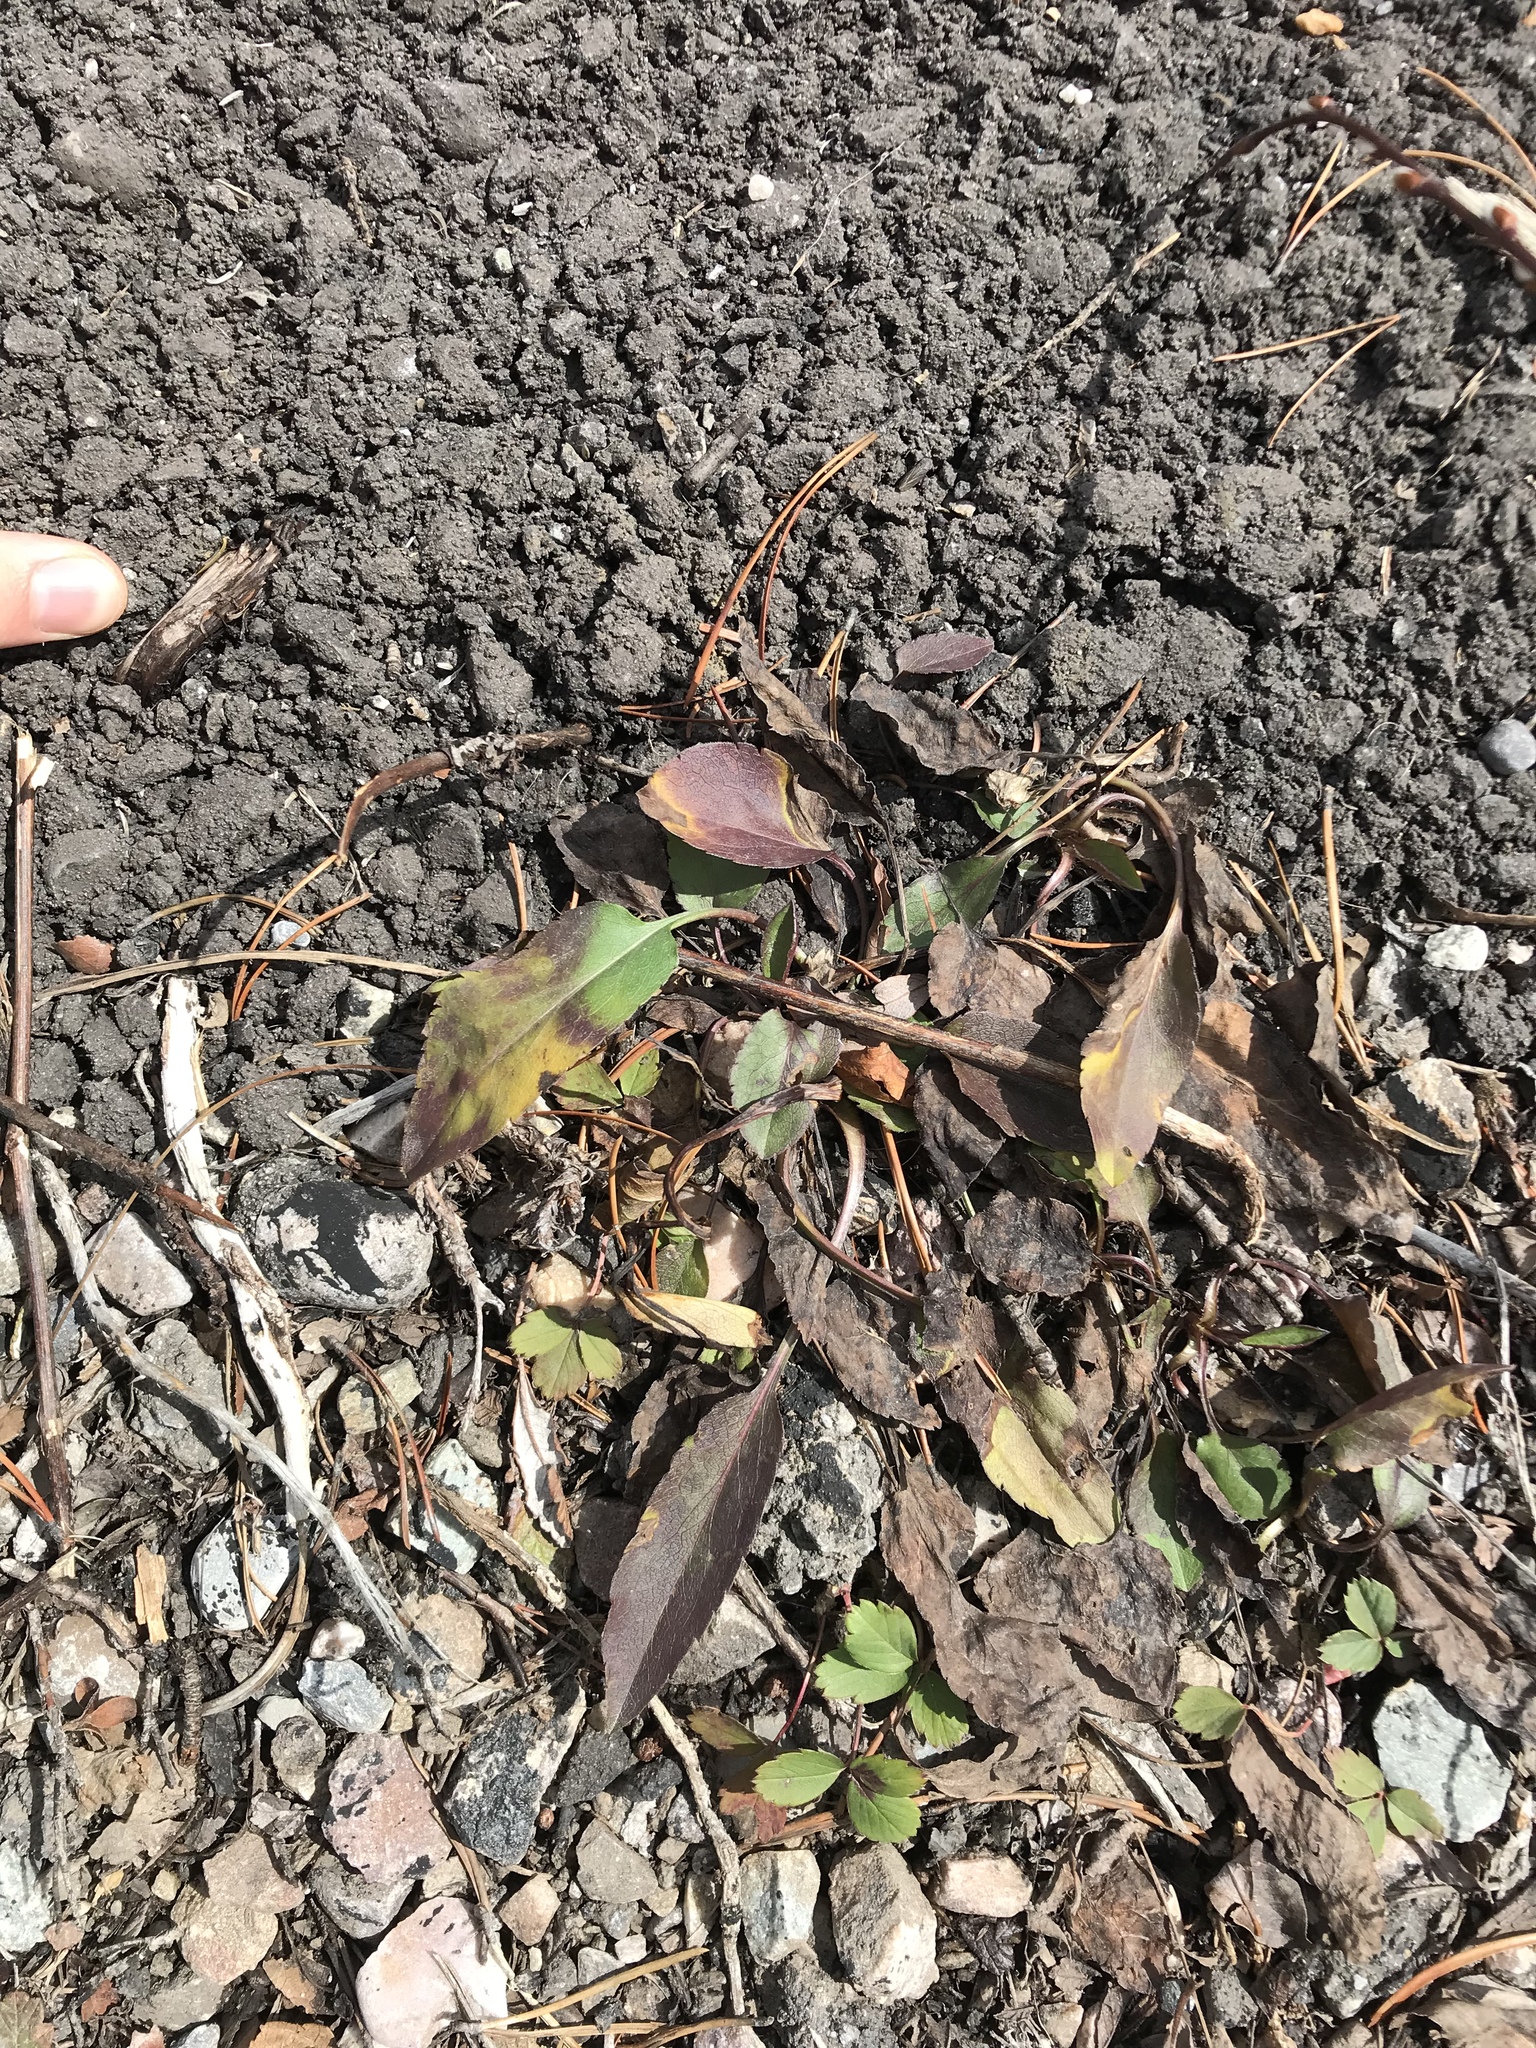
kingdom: Plantae
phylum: Tracheophyta
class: Magnoliopsida
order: Asterales
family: Asteraceae
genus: Symphyotrichum
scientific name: Symphyotrichum ciliolatum
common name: Fringed blue aster
